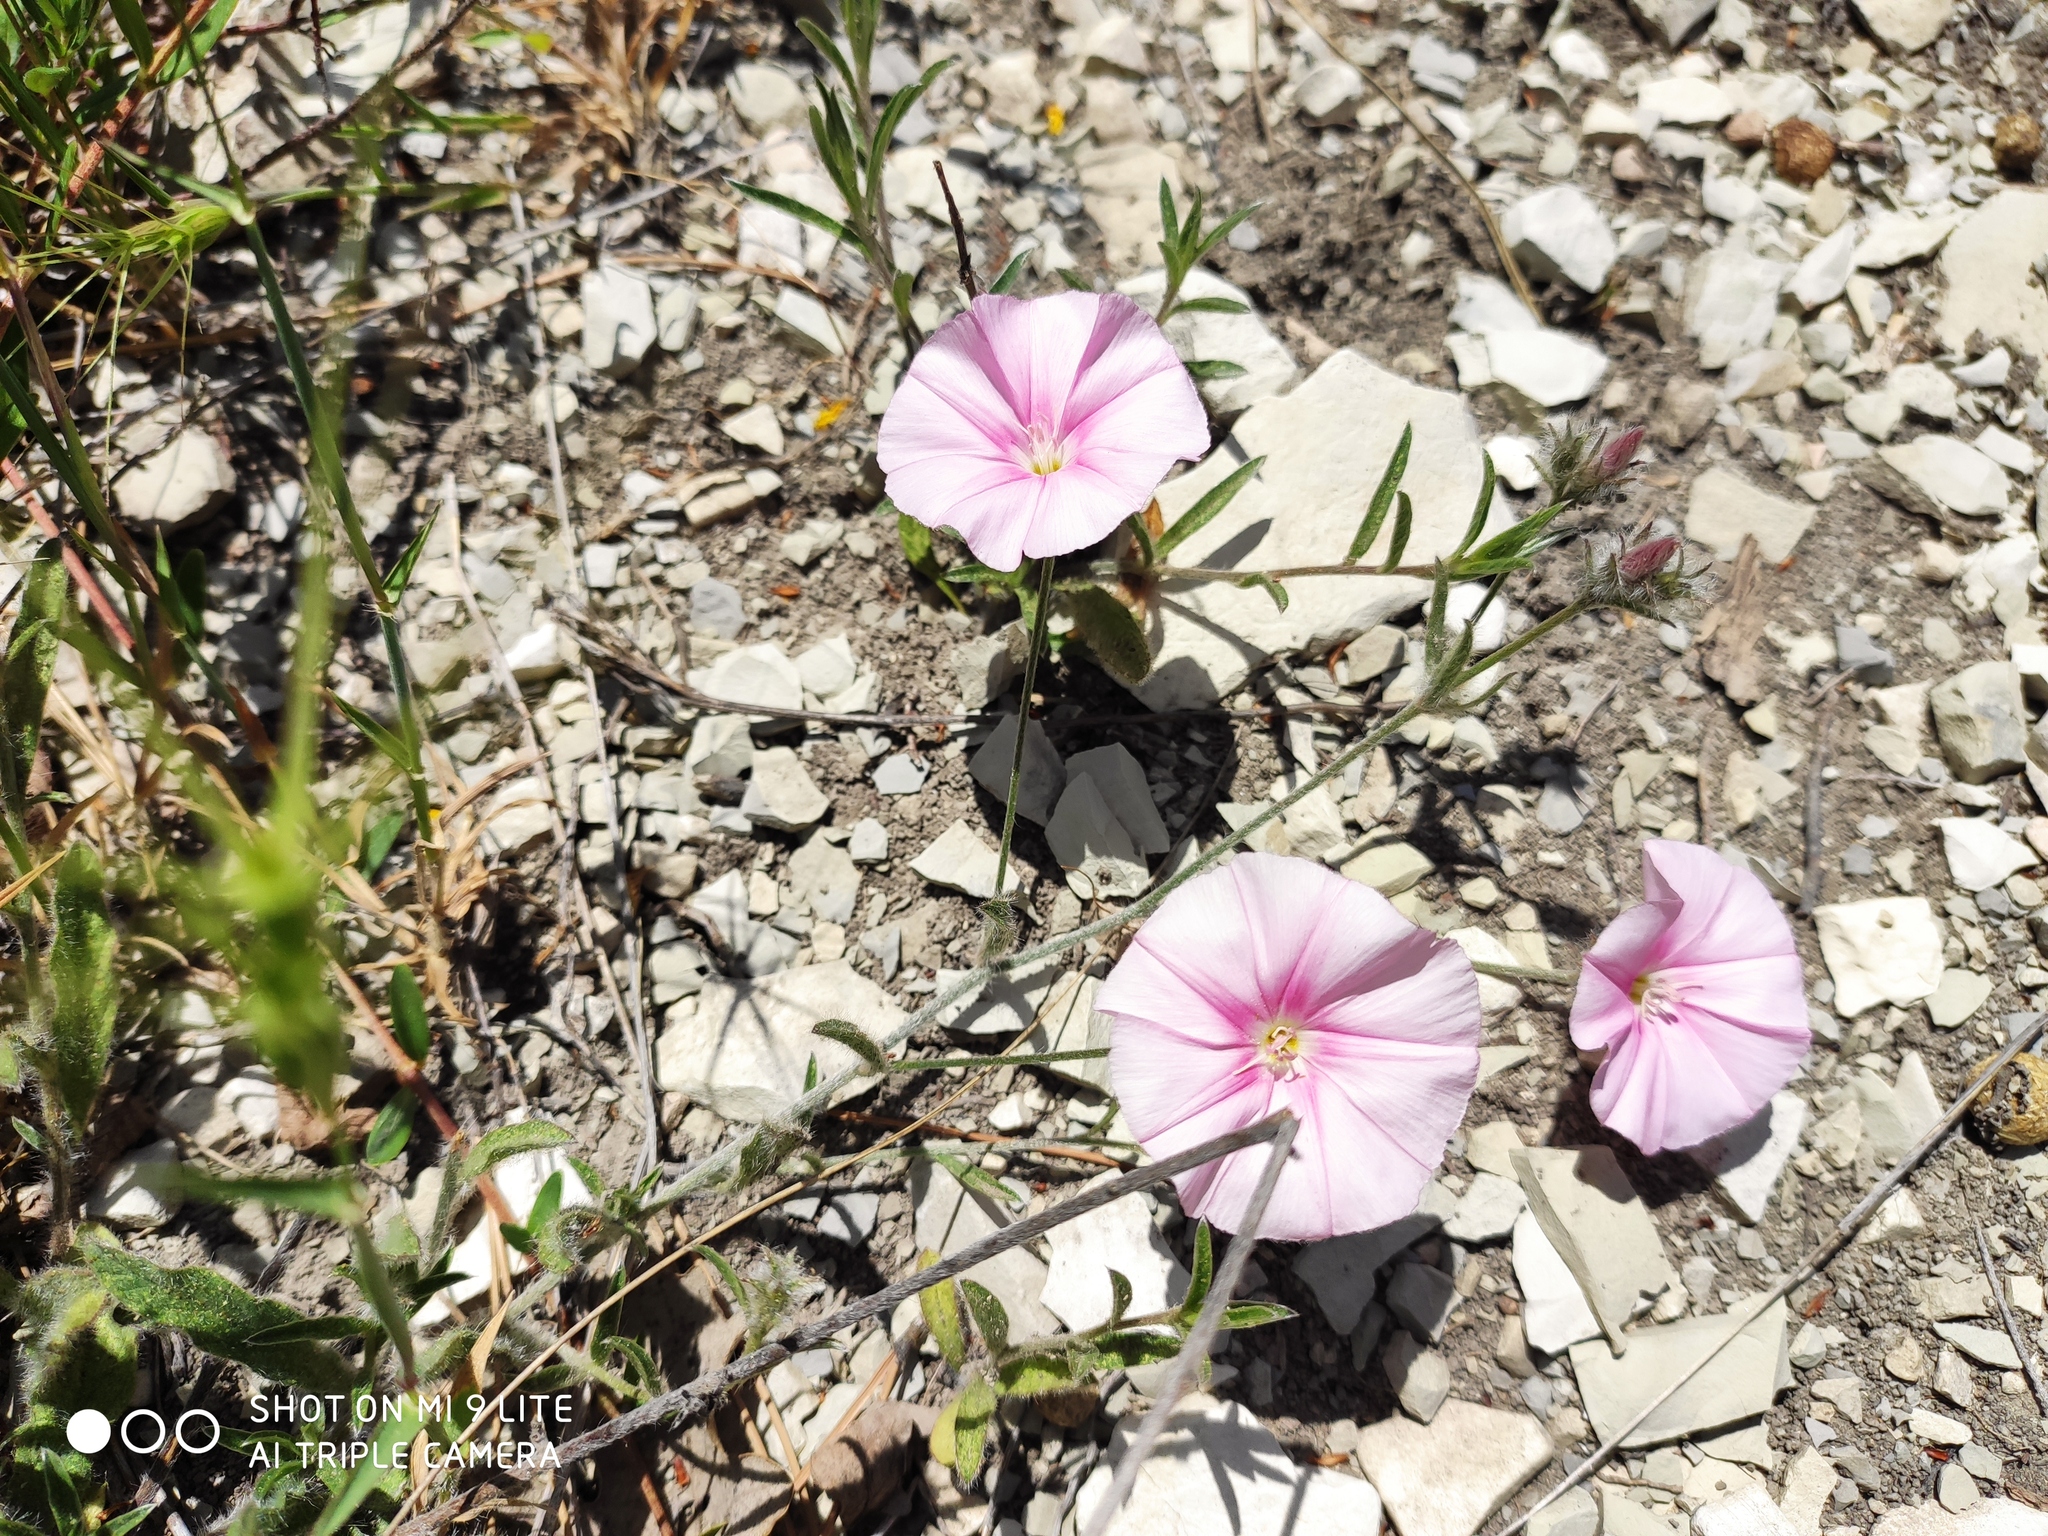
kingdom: Plantae
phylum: Tracheophyta
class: Magnoliopsida
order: Solanales
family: Convolvulaceae
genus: Convolvulus
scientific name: Convolvulus cantabrica
